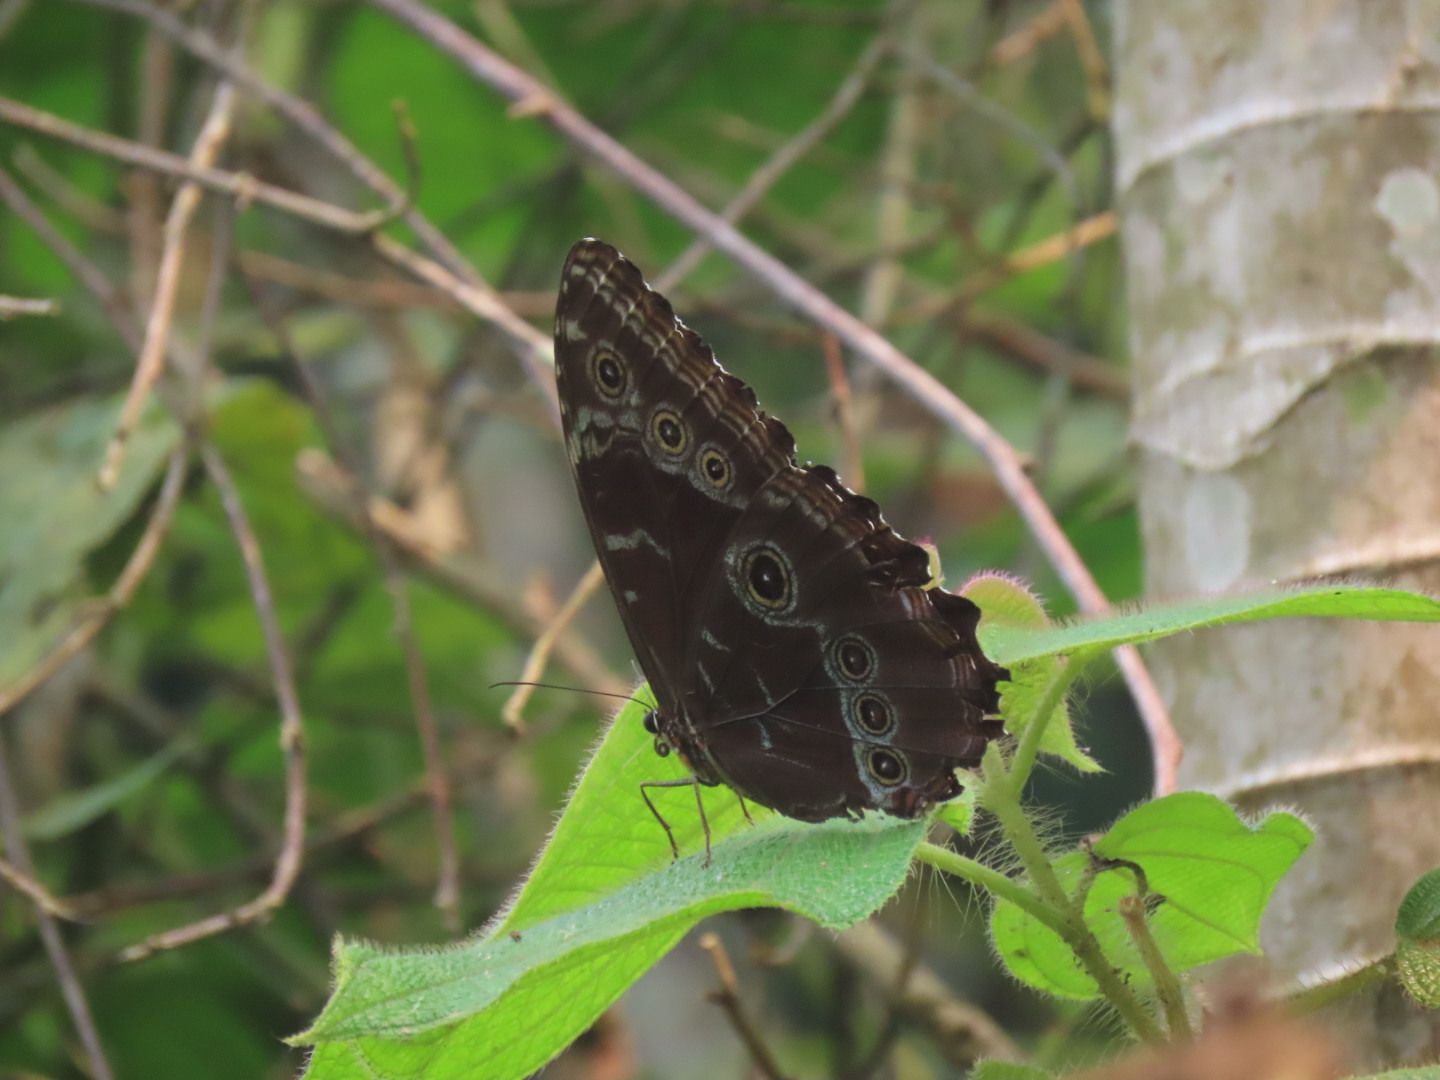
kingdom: Animalia
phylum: Arthropoda
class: Insecta
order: Lepidoptera
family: Nymphalidae
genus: Morpho
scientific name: Morpho helenor
